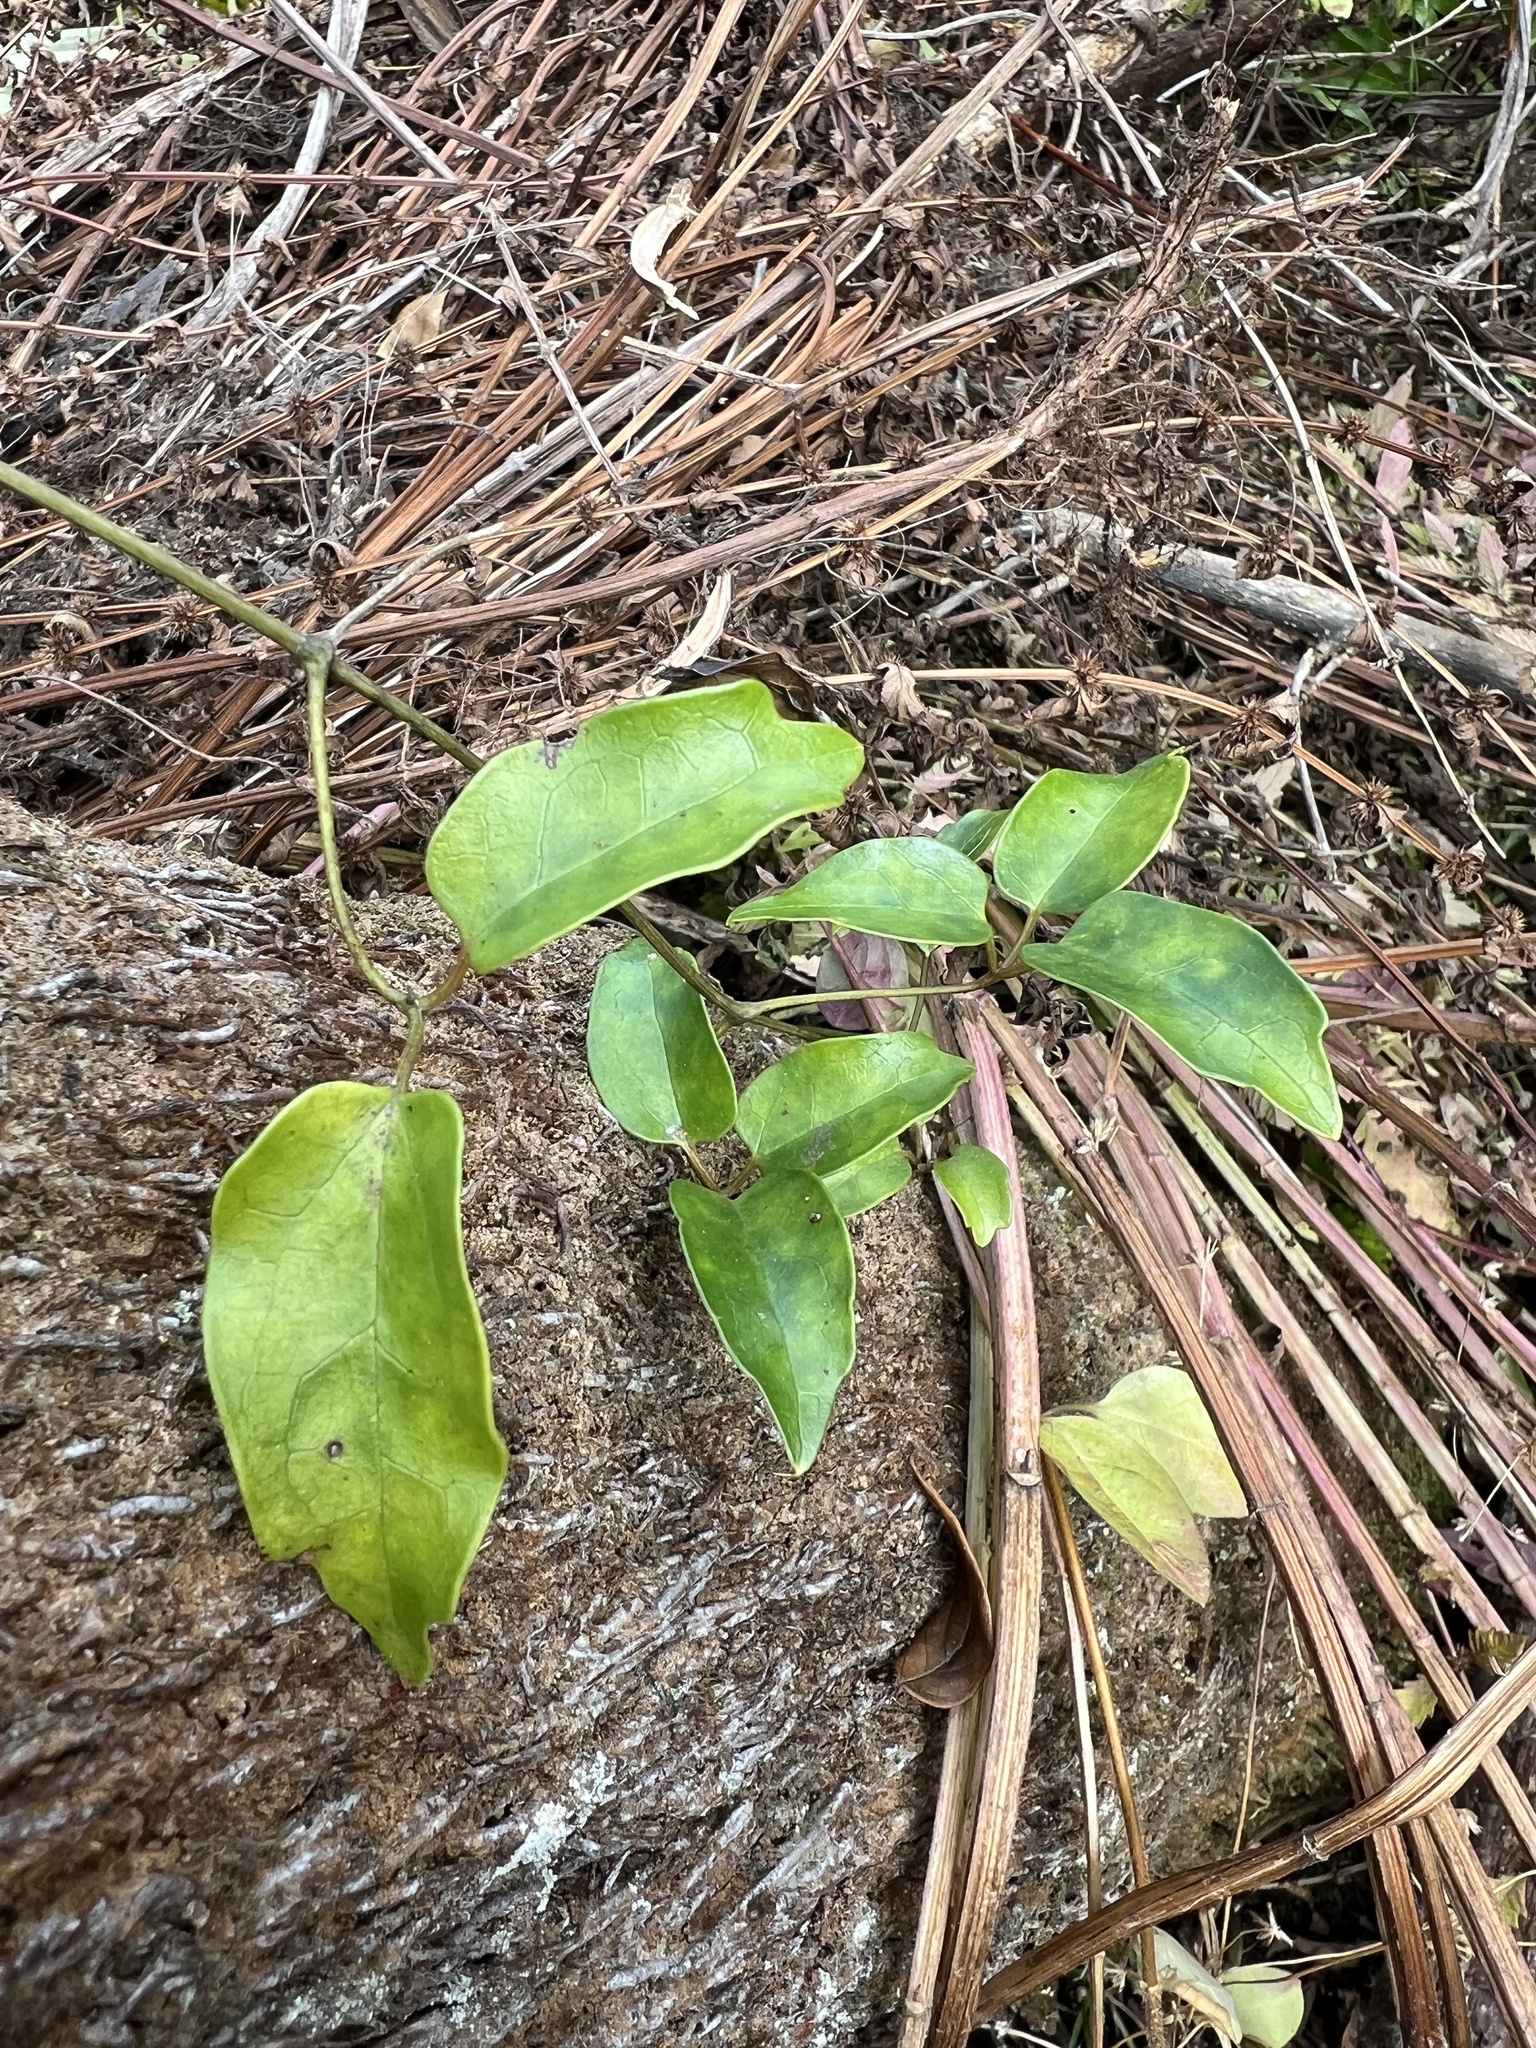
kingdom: Plantae
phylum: Tracheophyta
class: Magnoliopsida
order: Ranunculales
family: Ranunculaceae
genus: Clematis
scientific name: Clematis paniculata
